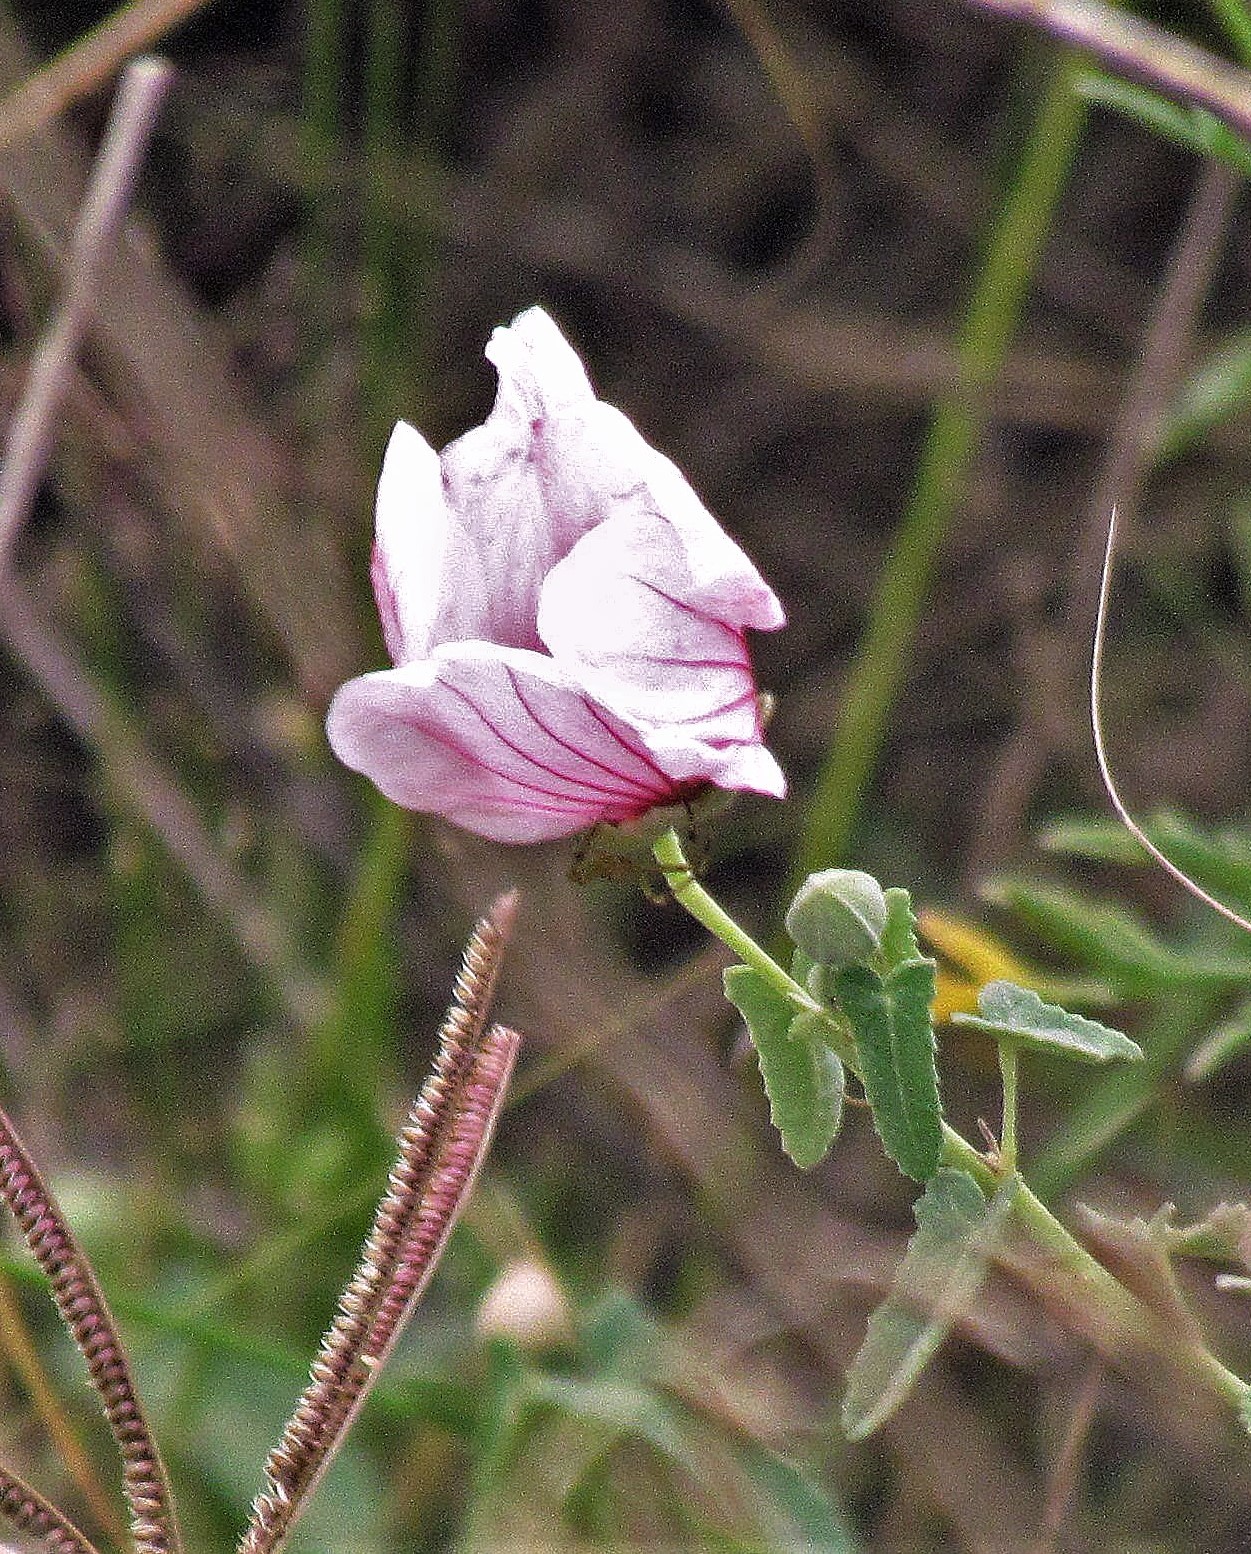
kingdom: Plantae
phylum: Tracheophyta
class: Magnoliopsida
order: Malvales
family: Malvaceae
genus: Pavonia
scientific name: Pavonia aurigloba
